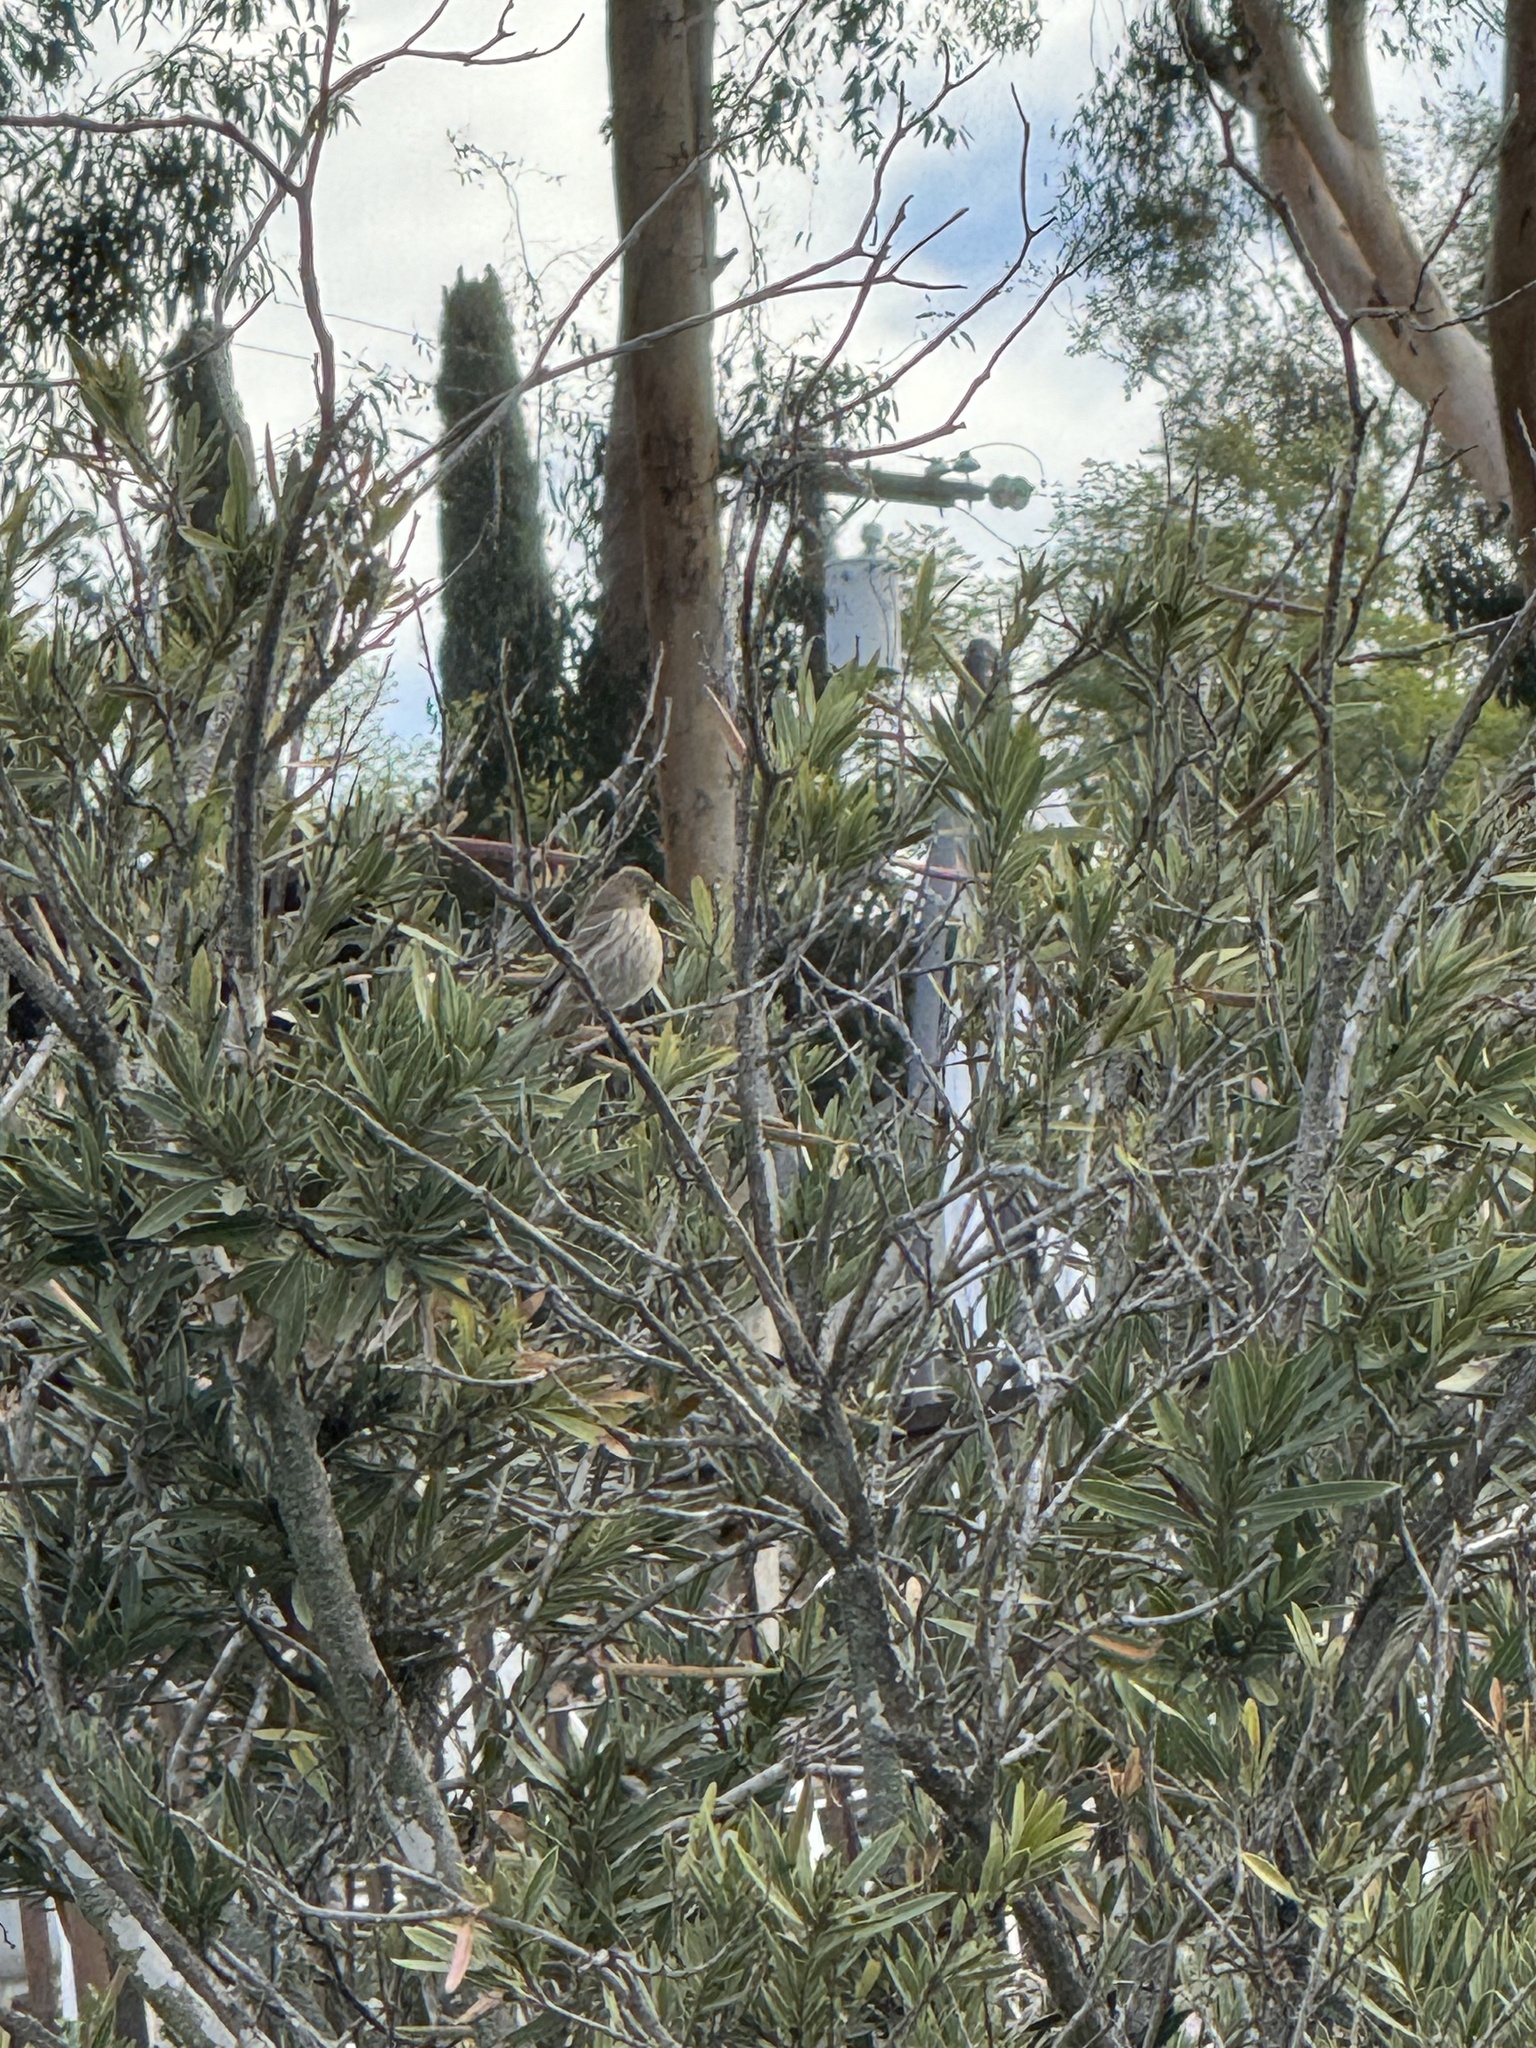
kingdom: Animalia
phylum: Chordata
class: Aves
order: Passeriformes
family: Fringillidae
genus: Haemorhous
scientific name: Haemorhous mexicanus
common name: House finch
